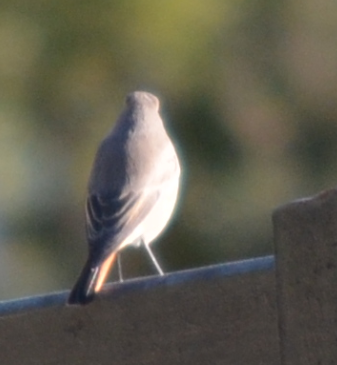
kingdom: Animalia
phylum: Chordata
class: Aves
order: Passeriformes
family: Muscicapidae
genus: Phoenicurus
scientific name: Phoenicurus ochruros
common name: Black redstart
